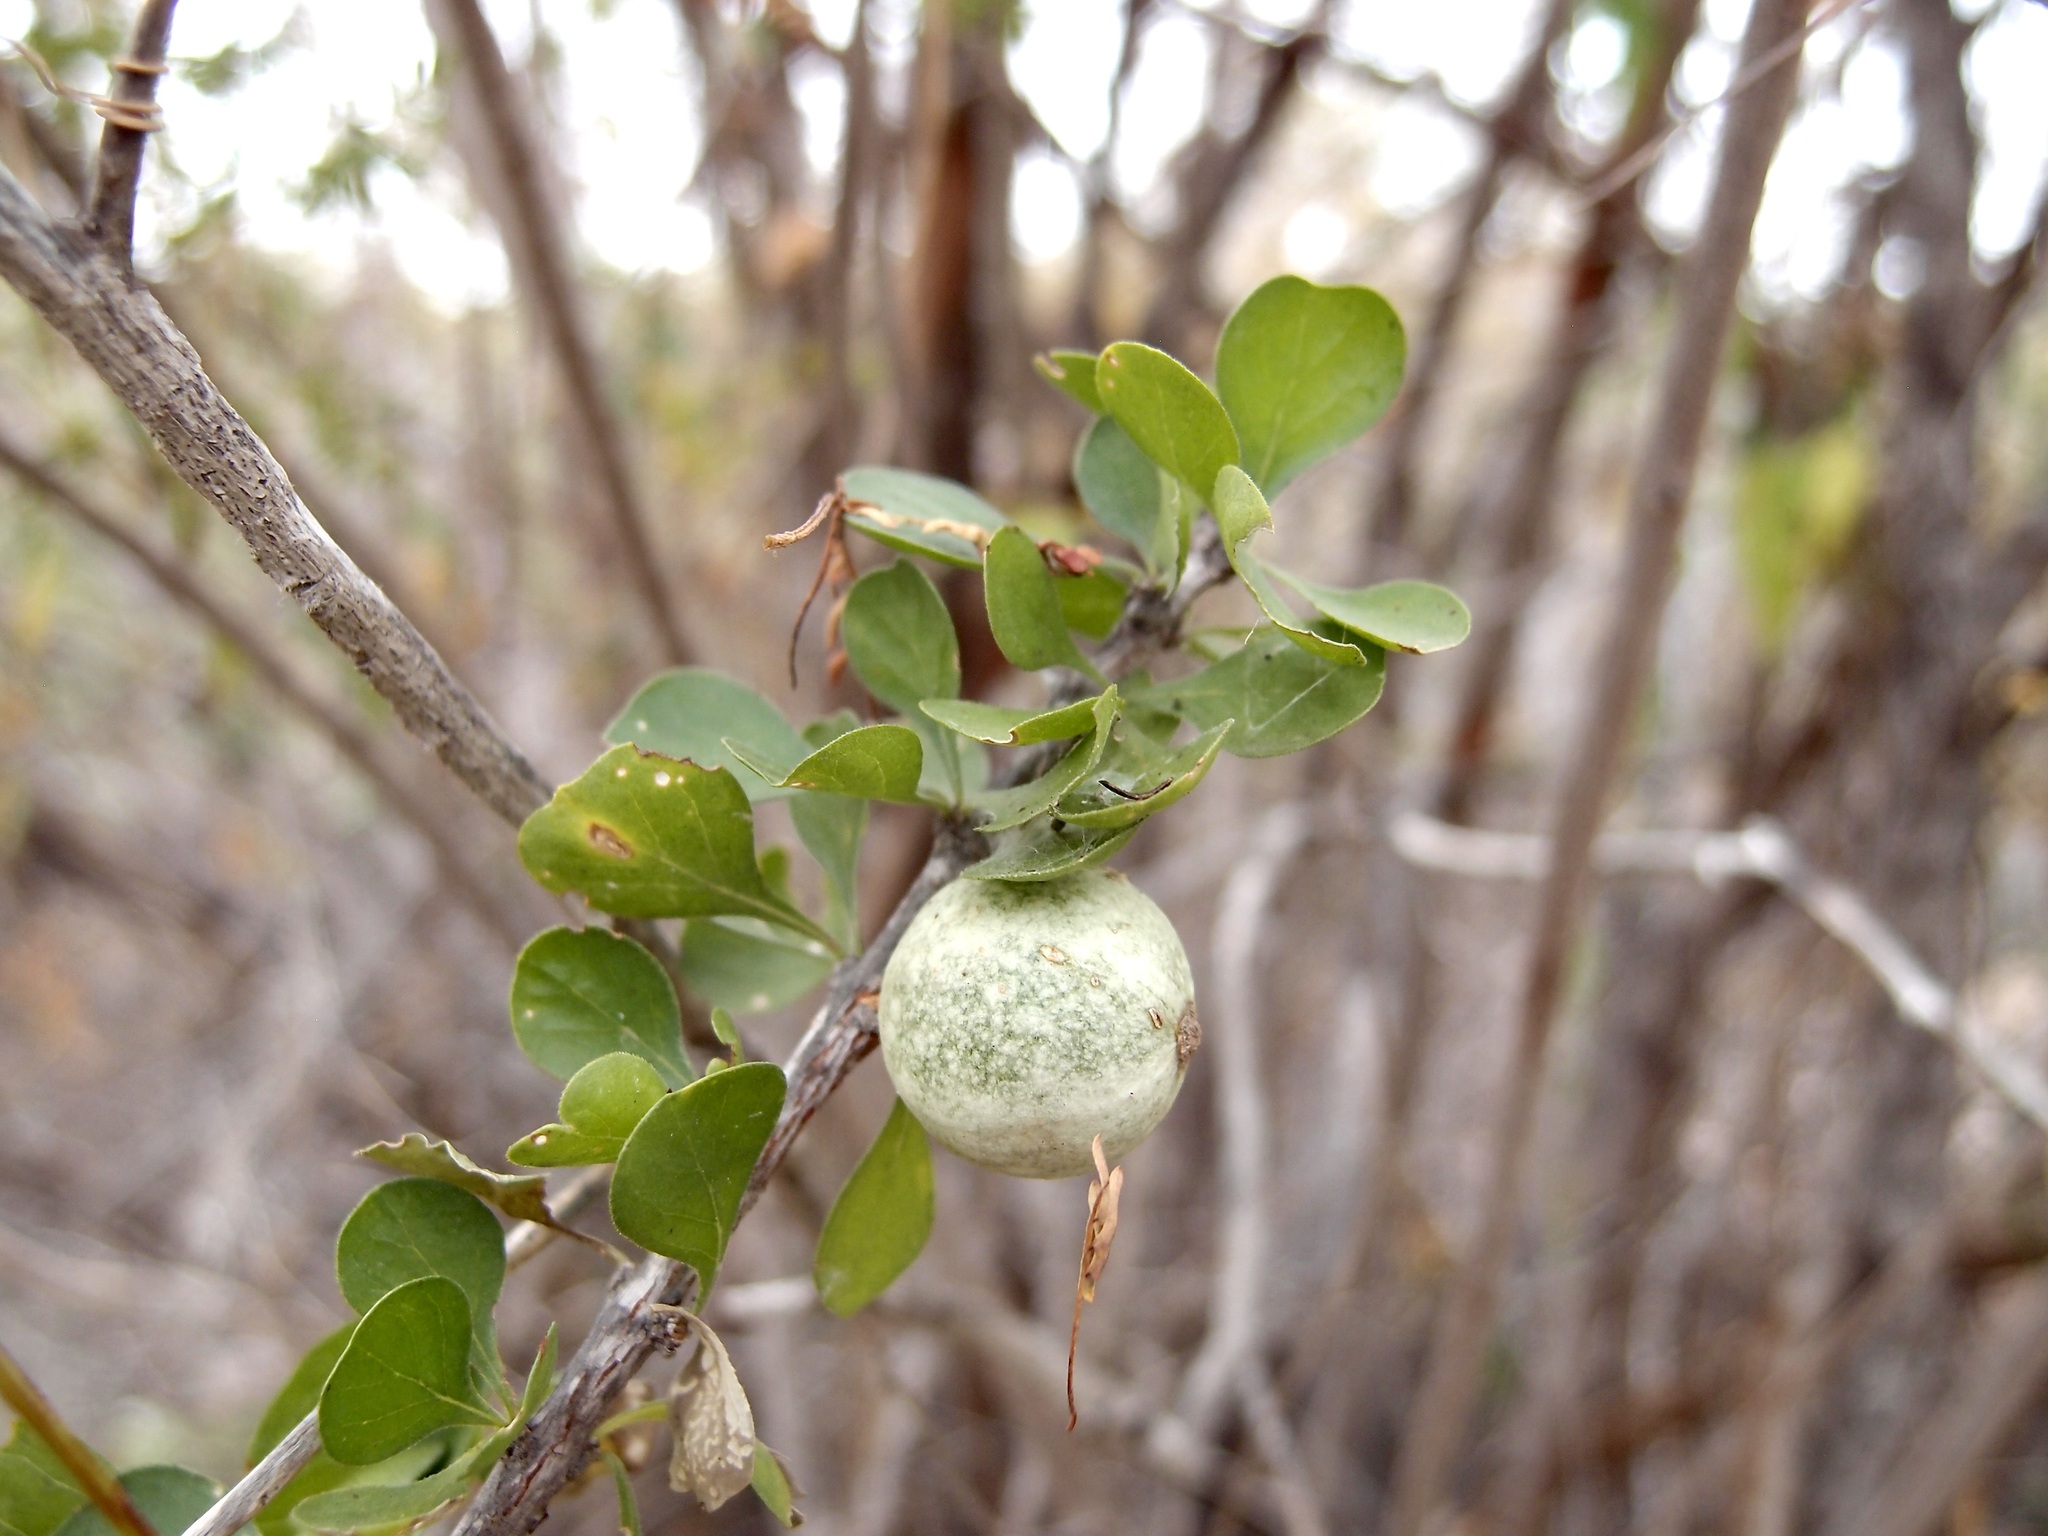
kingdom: Plantae
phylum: Tracheophyta
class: Magnoliopsida
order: Gentianales
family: Rubiaceae
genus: Randia
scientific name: Randia thurberi
